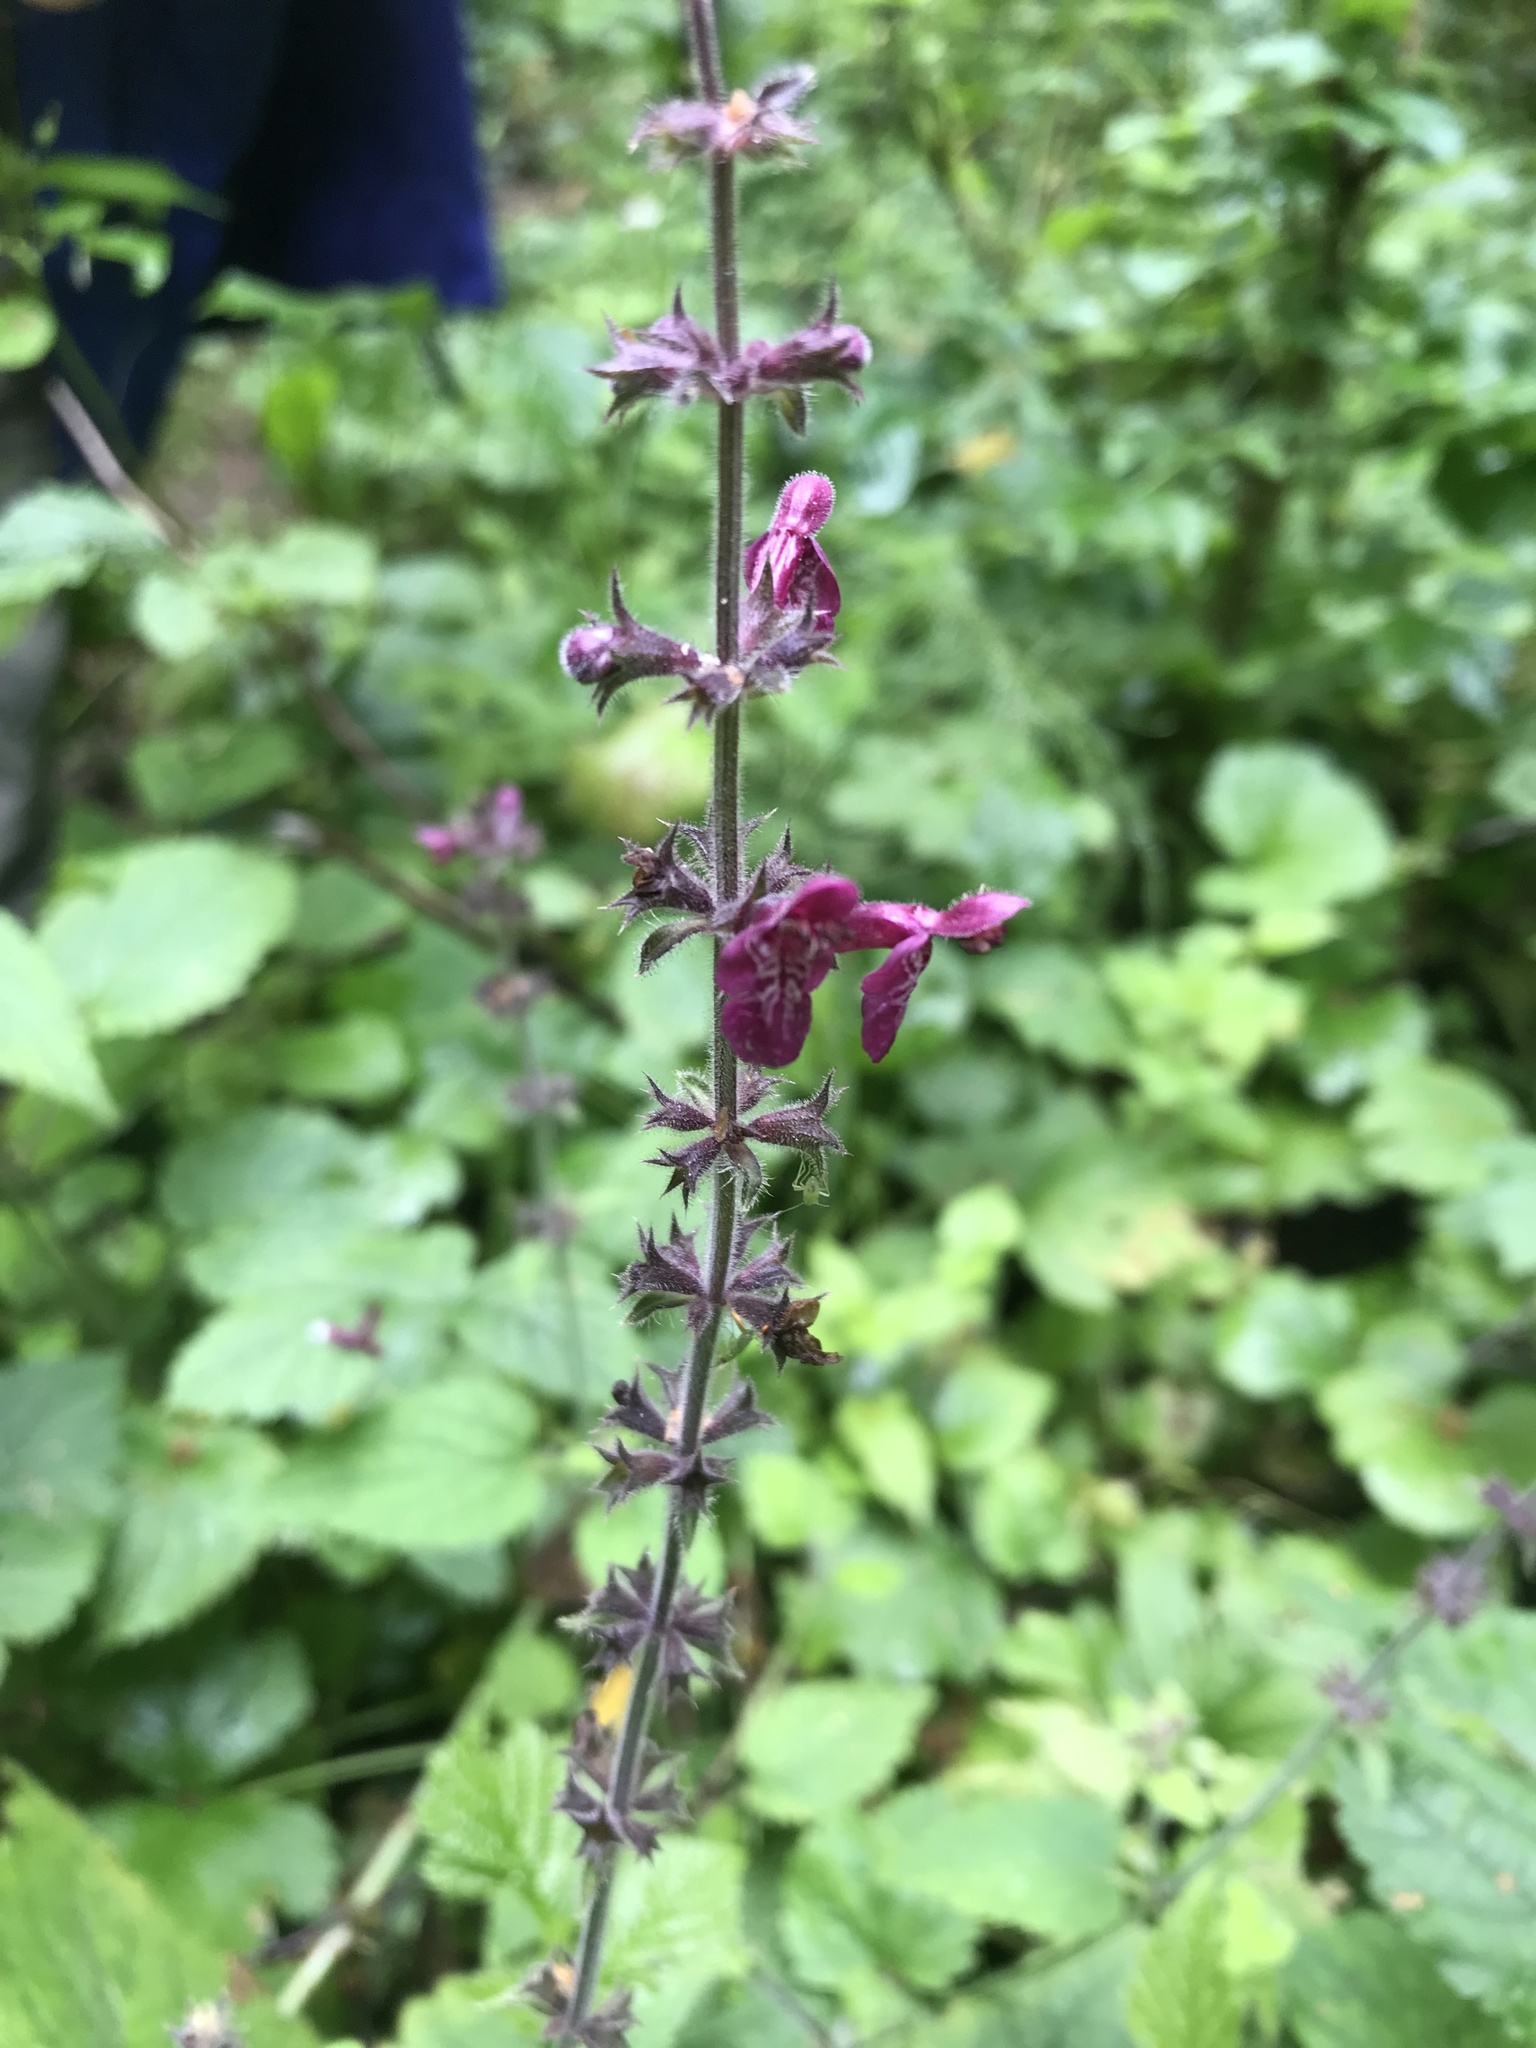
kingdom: Plantae
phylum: Tracheophyta
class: Magnoliopsida
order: Lamiales
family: Lamiaceae
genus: Stachys
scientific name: Stachys sylvatica
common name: Hedge woundwort
